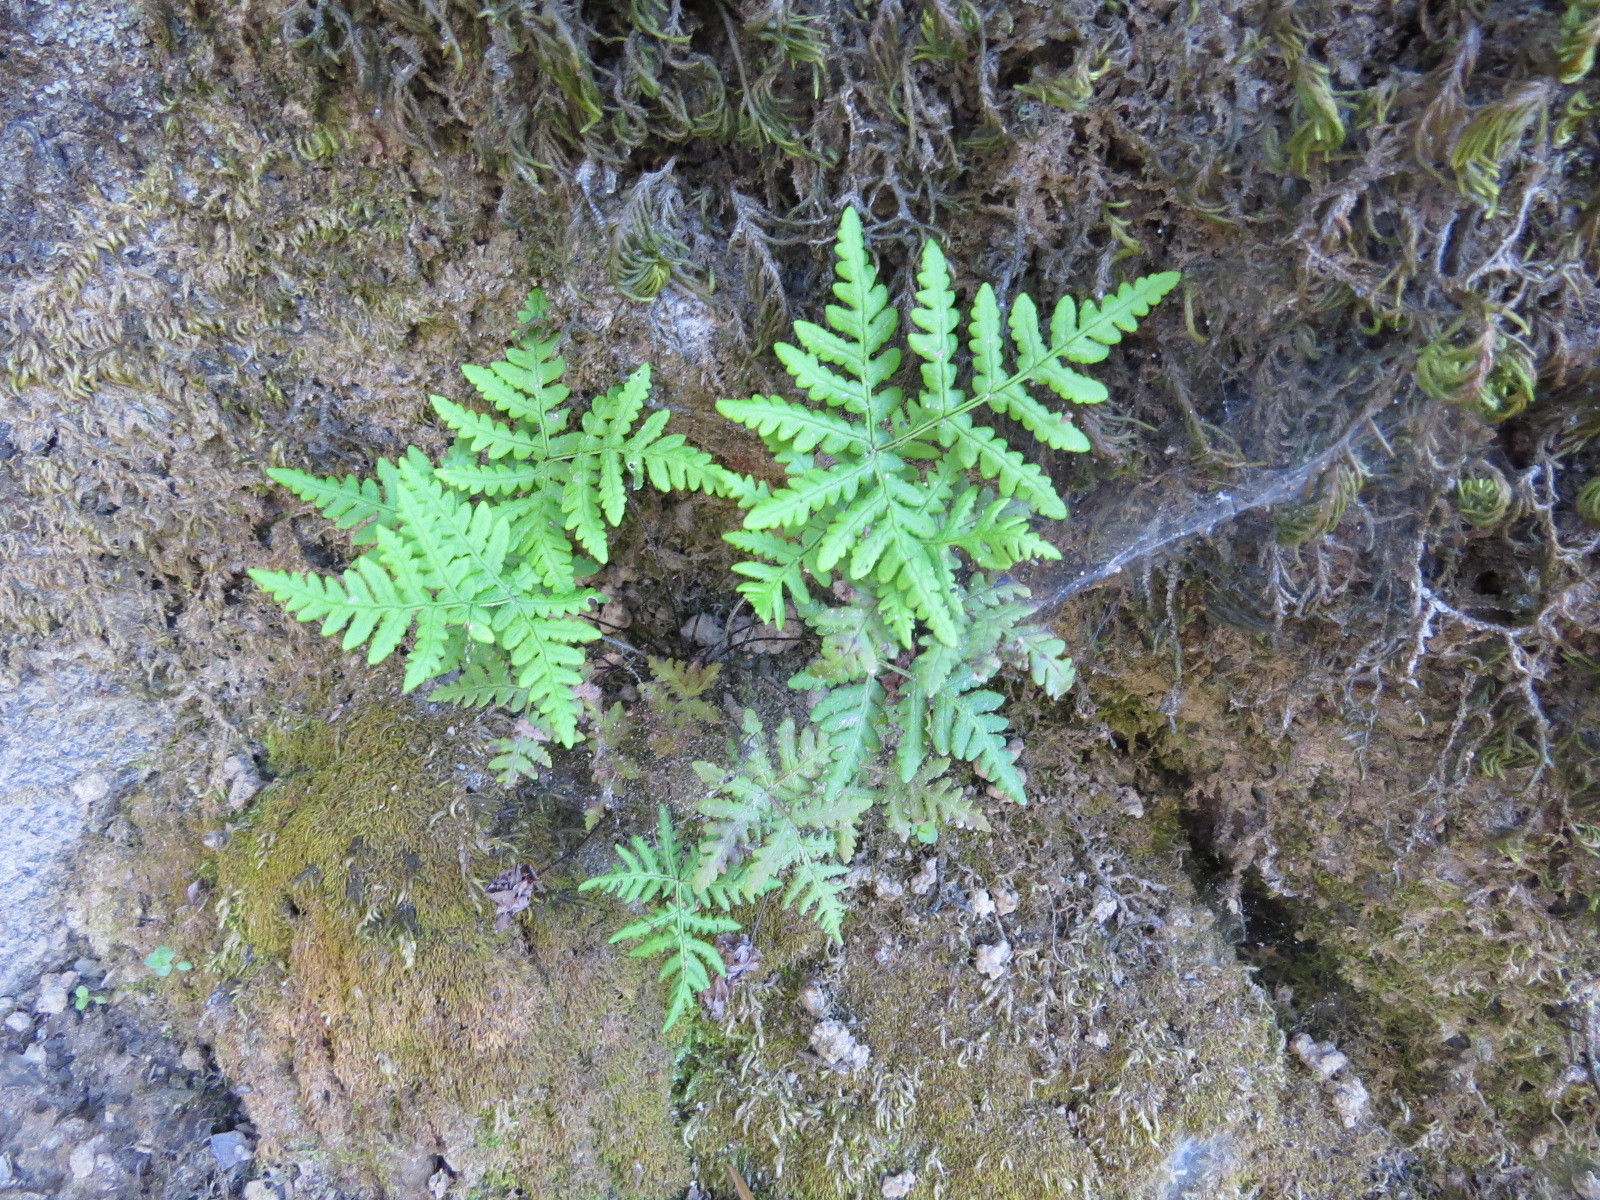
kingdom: Plantae
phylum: Tracheophyta
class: Polypodiopsida
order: Polypodiales
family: Pteridaceae
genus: Pentagramma
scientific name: Pentagramma triangularis
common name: Gold fern
